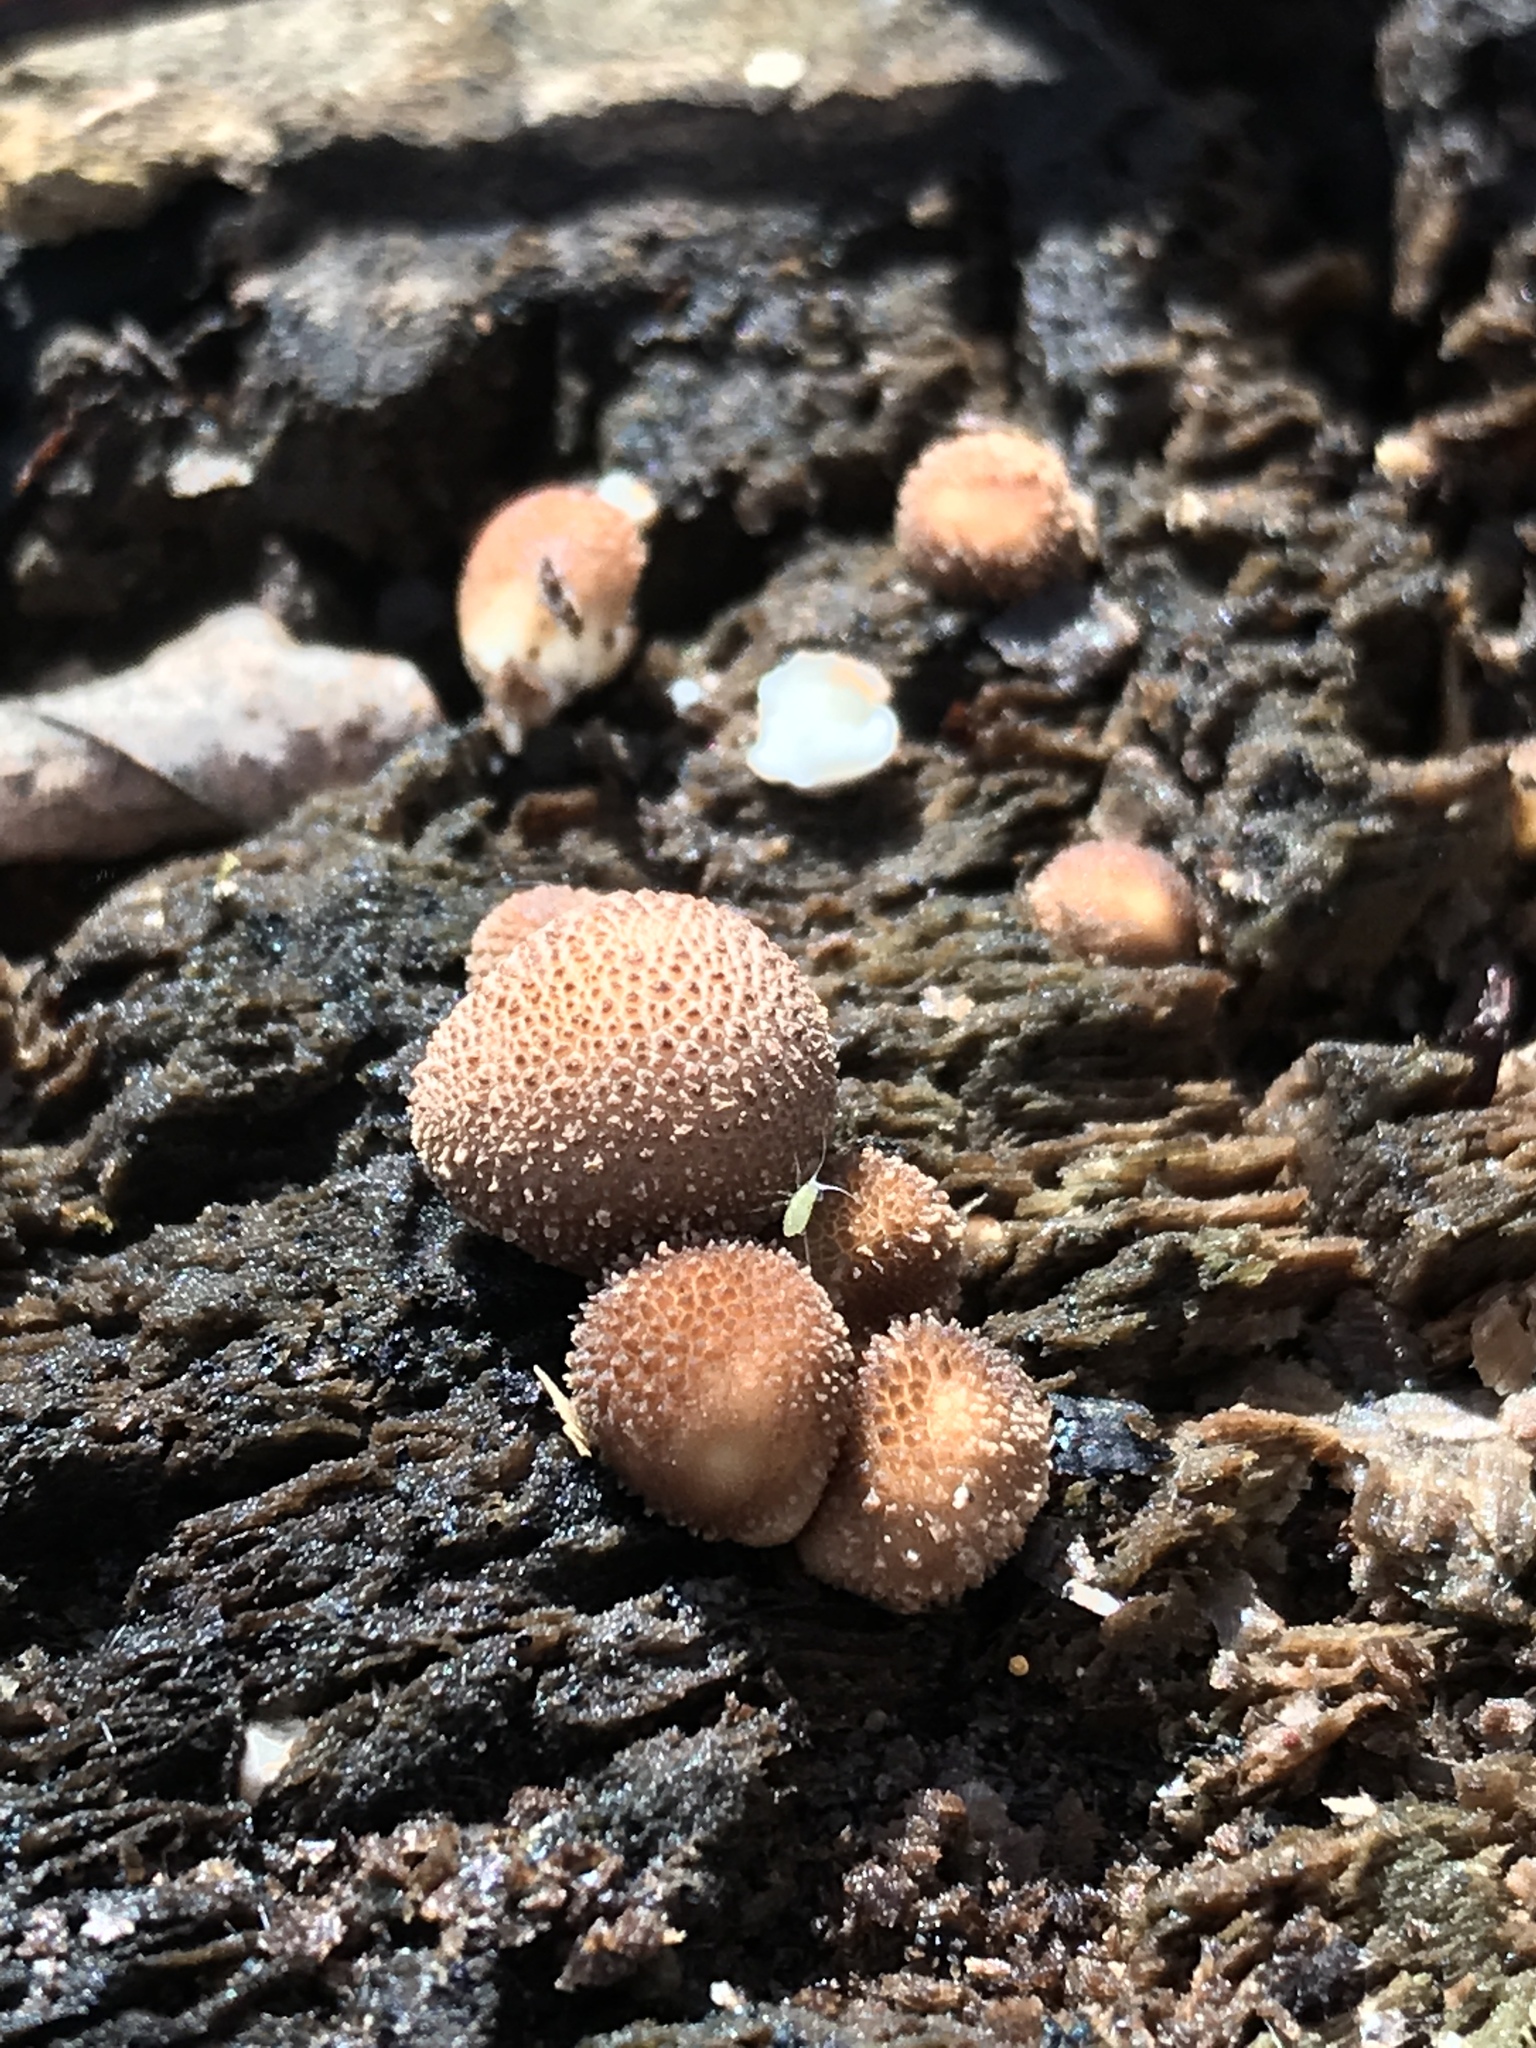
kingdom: Fungi
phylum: Basidiomycota
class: Agaricomycetes
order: Agaricales
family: Lycoperdaceae
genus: Apioperdon
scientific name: Apioperdon pyriforme
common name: Pear-shaped puffball
